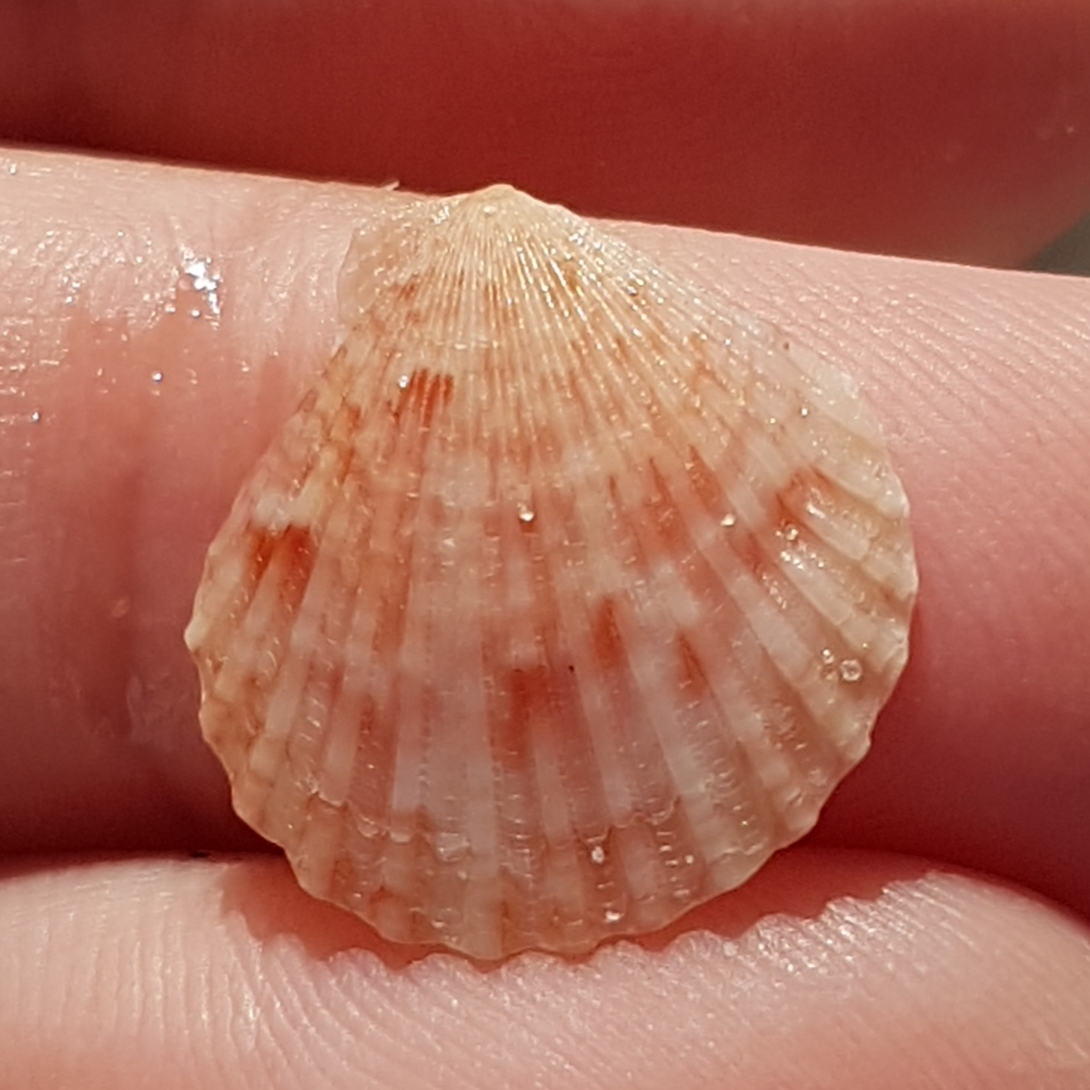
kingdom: Animalia
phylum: Mollusca
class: Bivalvia
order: Pectinida
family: Pectinidae
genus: Aequipecten
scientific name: Aequipecten opercularis
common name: Queen scallop
